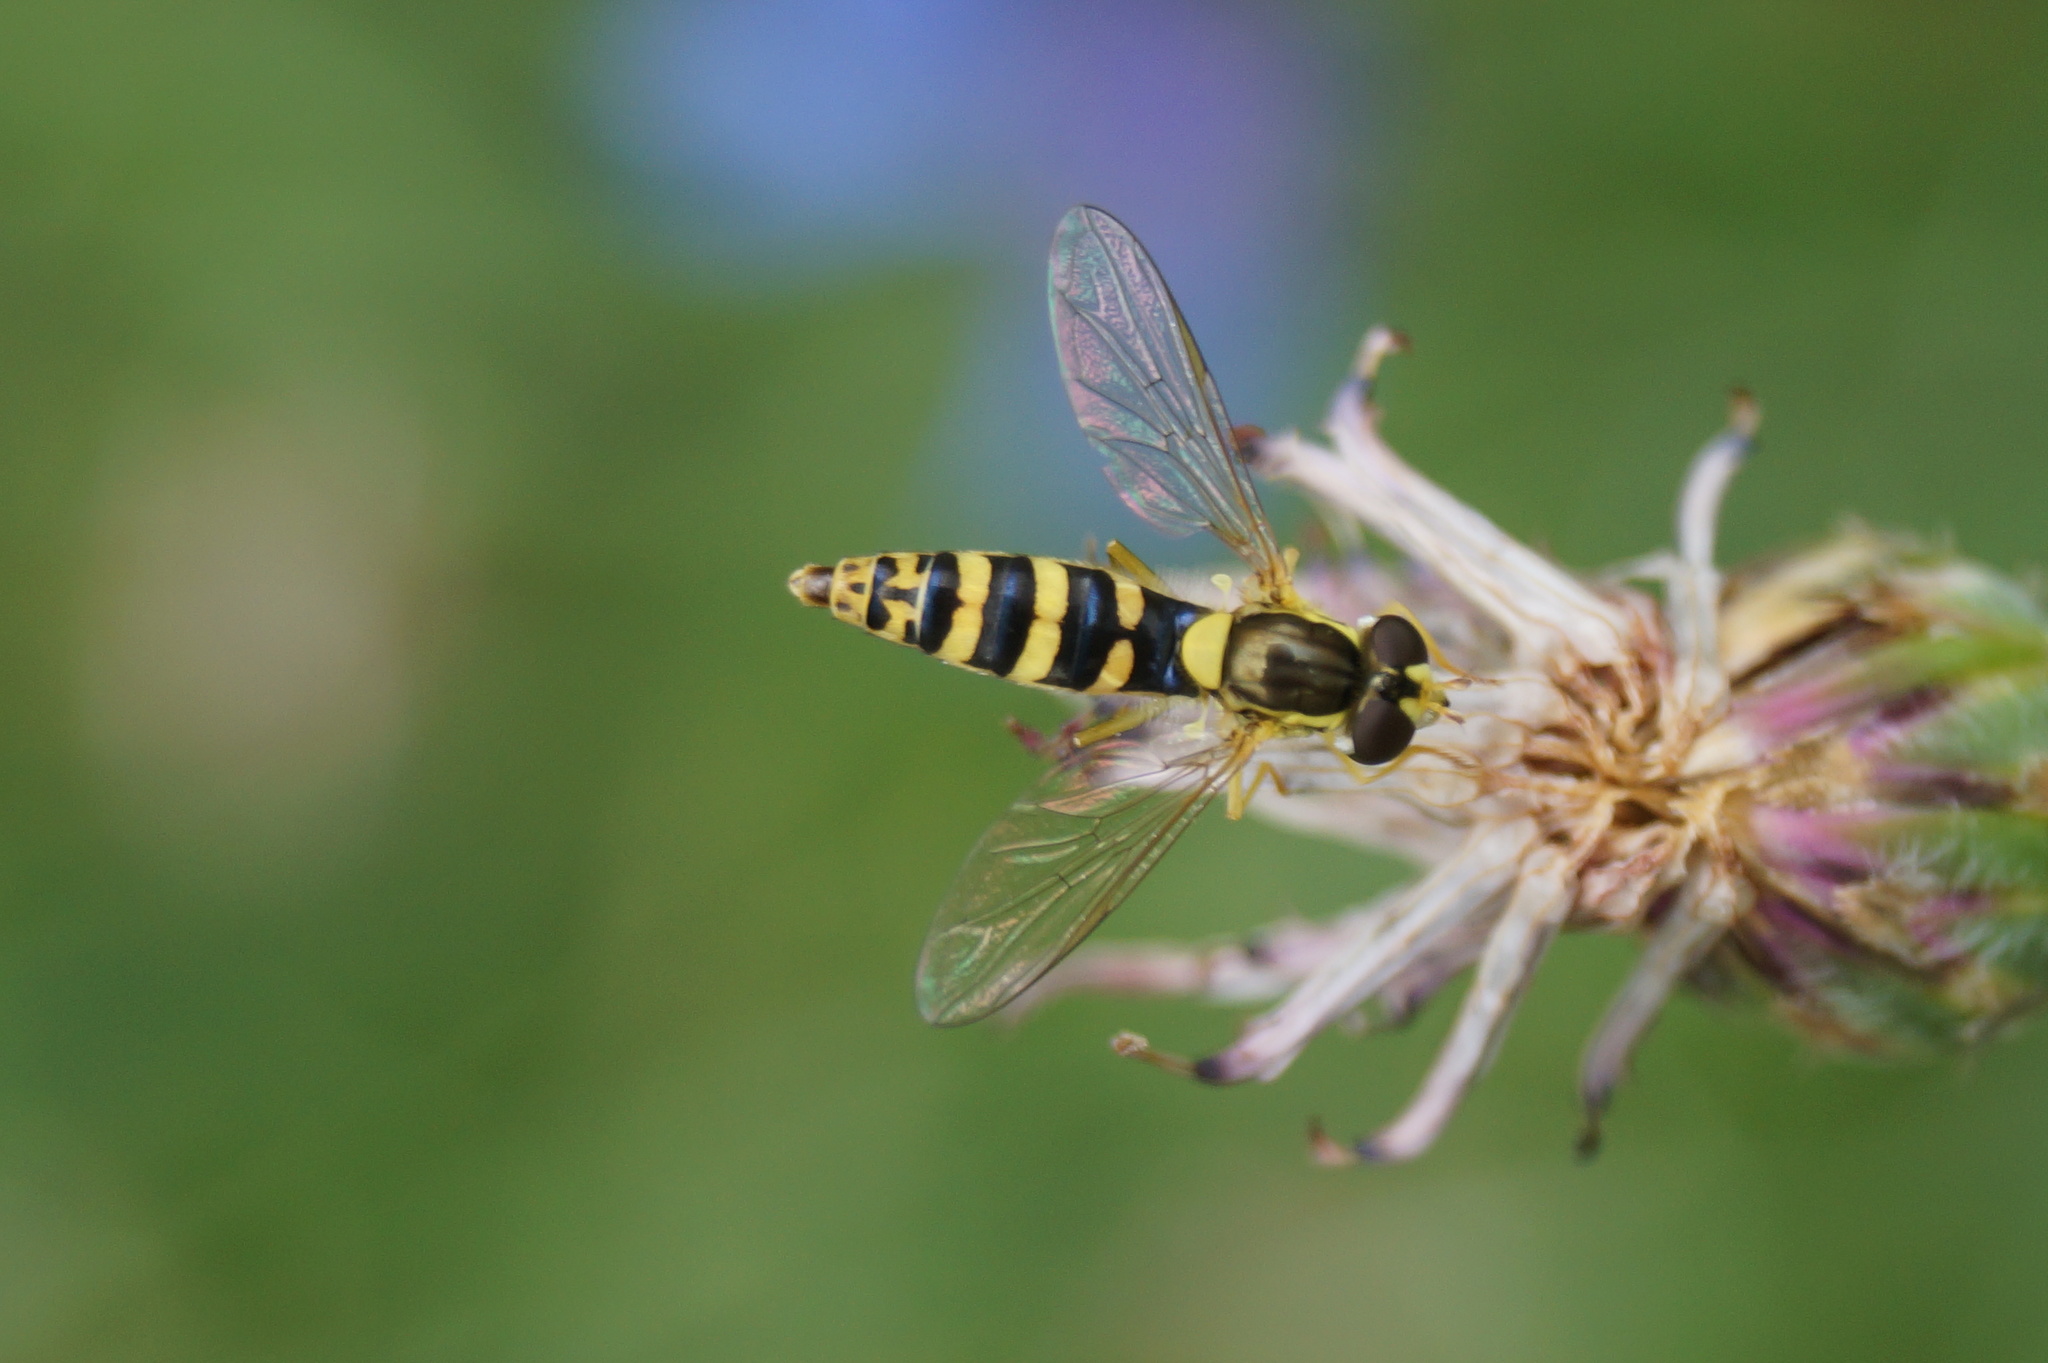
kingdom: Animalia
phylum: Arthropoda
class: Insecta
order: Diptera
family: Syrphidae
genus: Sphaerophoria
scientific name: Sphaerophoria
